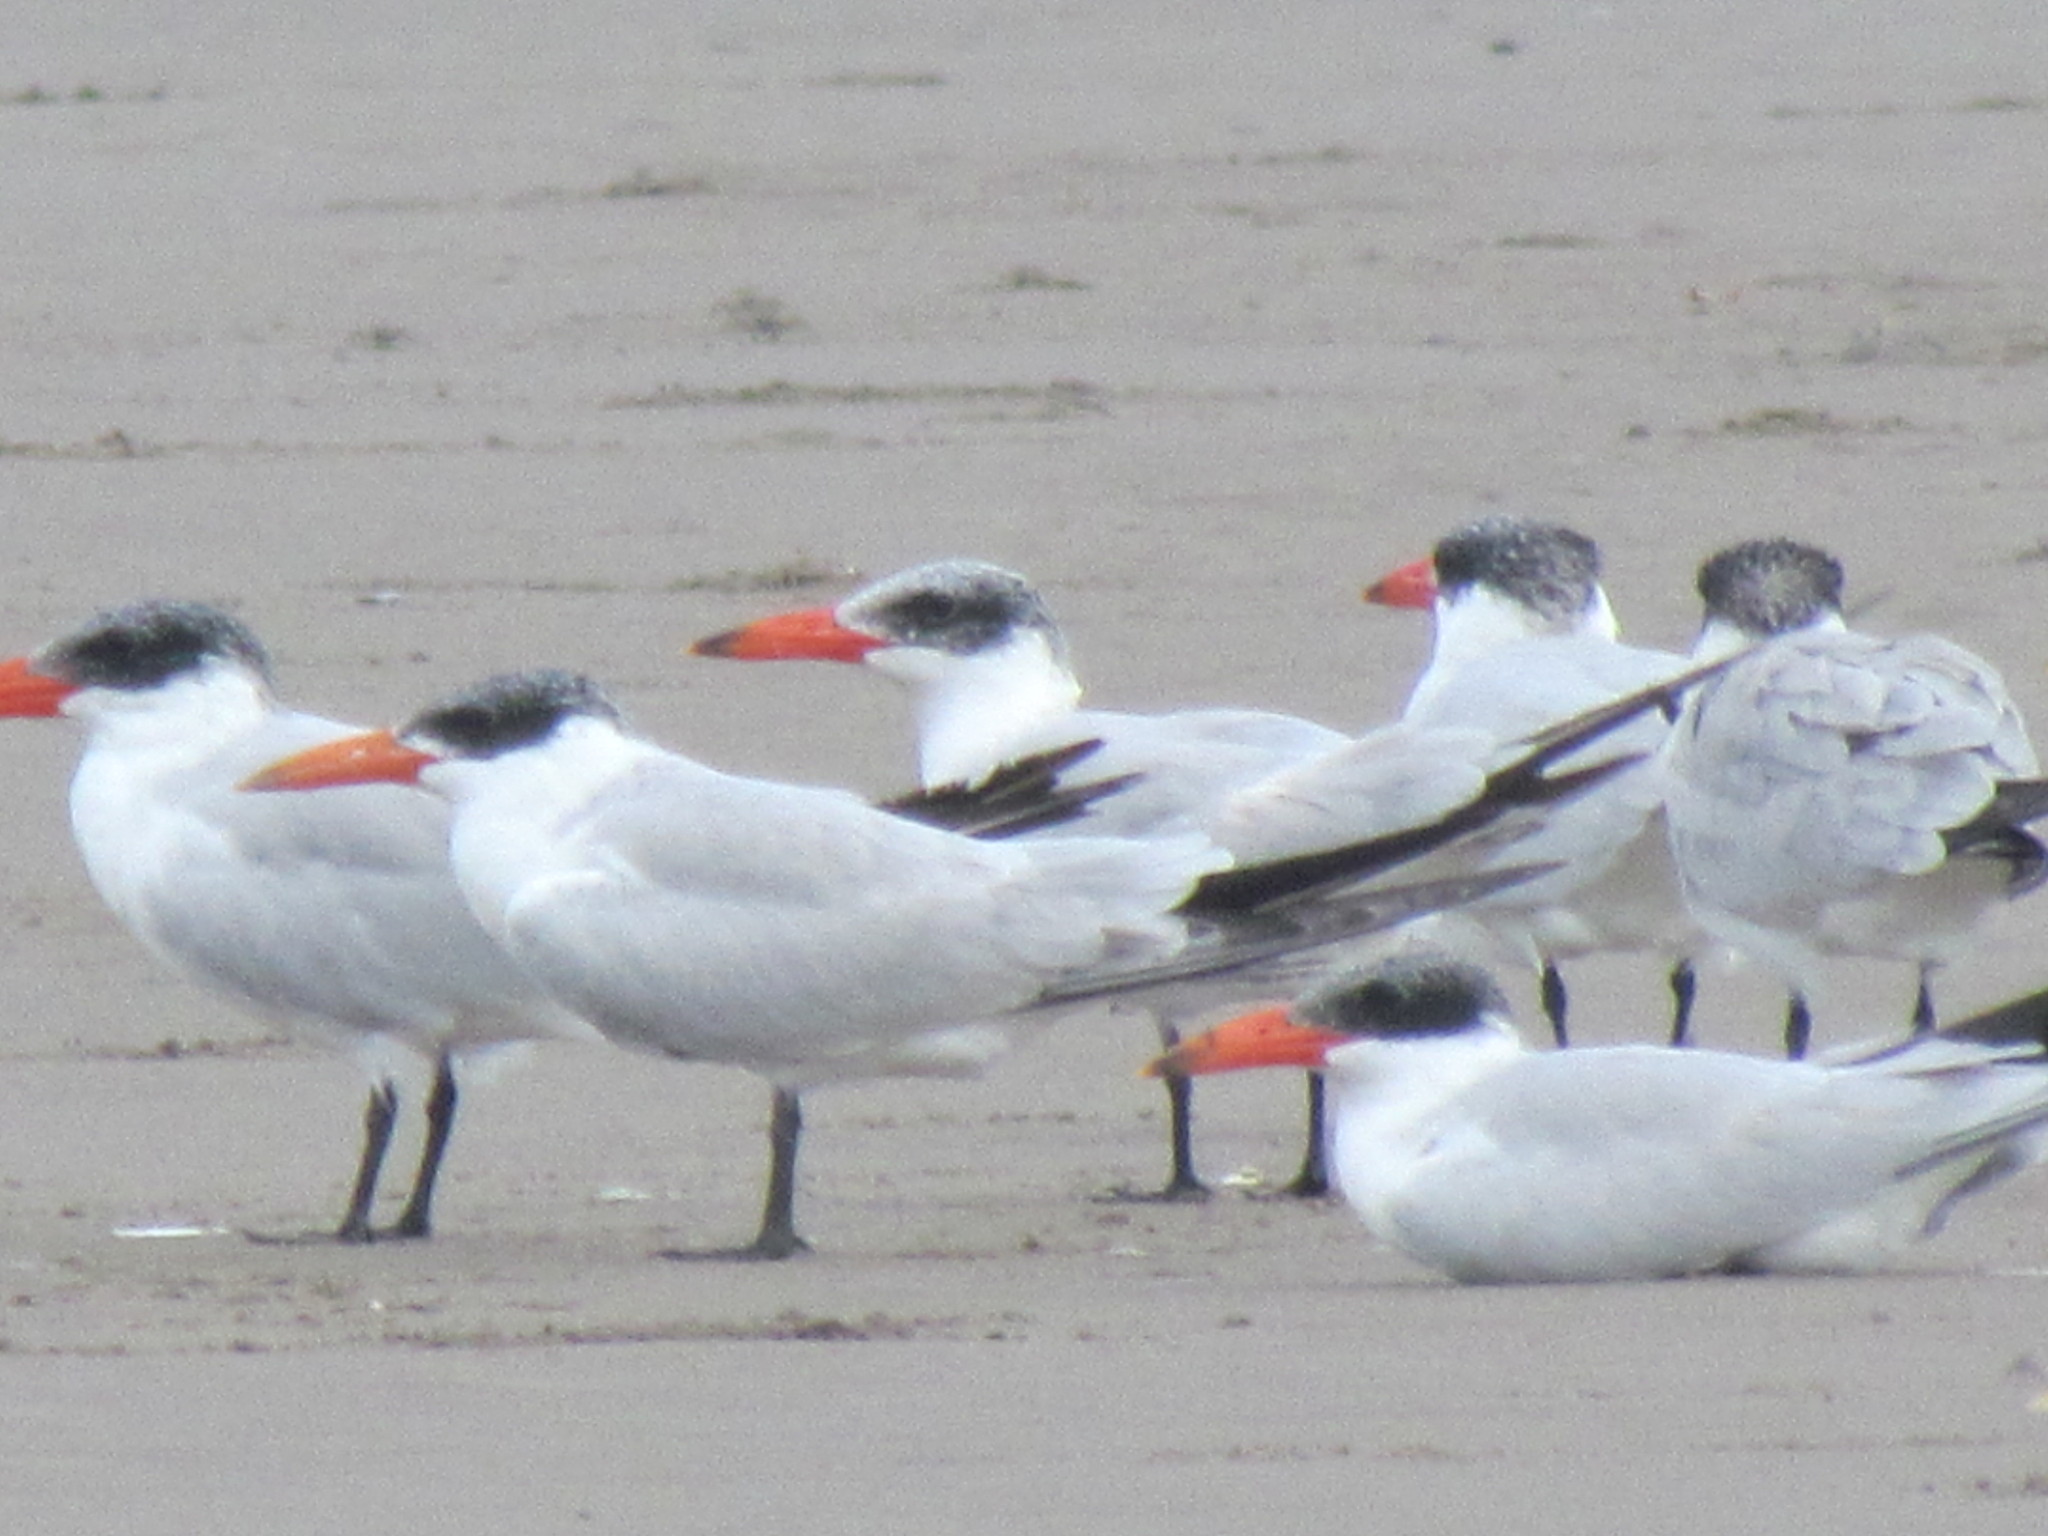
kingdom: Animalia
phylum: Chordata
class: Aves
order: Charadriiformes
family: Laridae
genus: Hydroprogne
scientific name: Hydroprogne caspia
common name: Caspian tern
